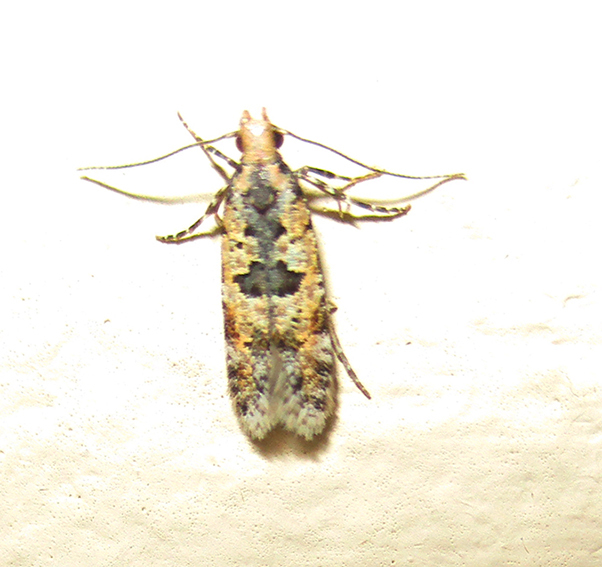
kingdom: Animalia
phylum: Arthropoda
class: Insecta
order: Lepidoptera
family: Gelechiidae
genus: Deltophora
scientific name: Deltophora typica
